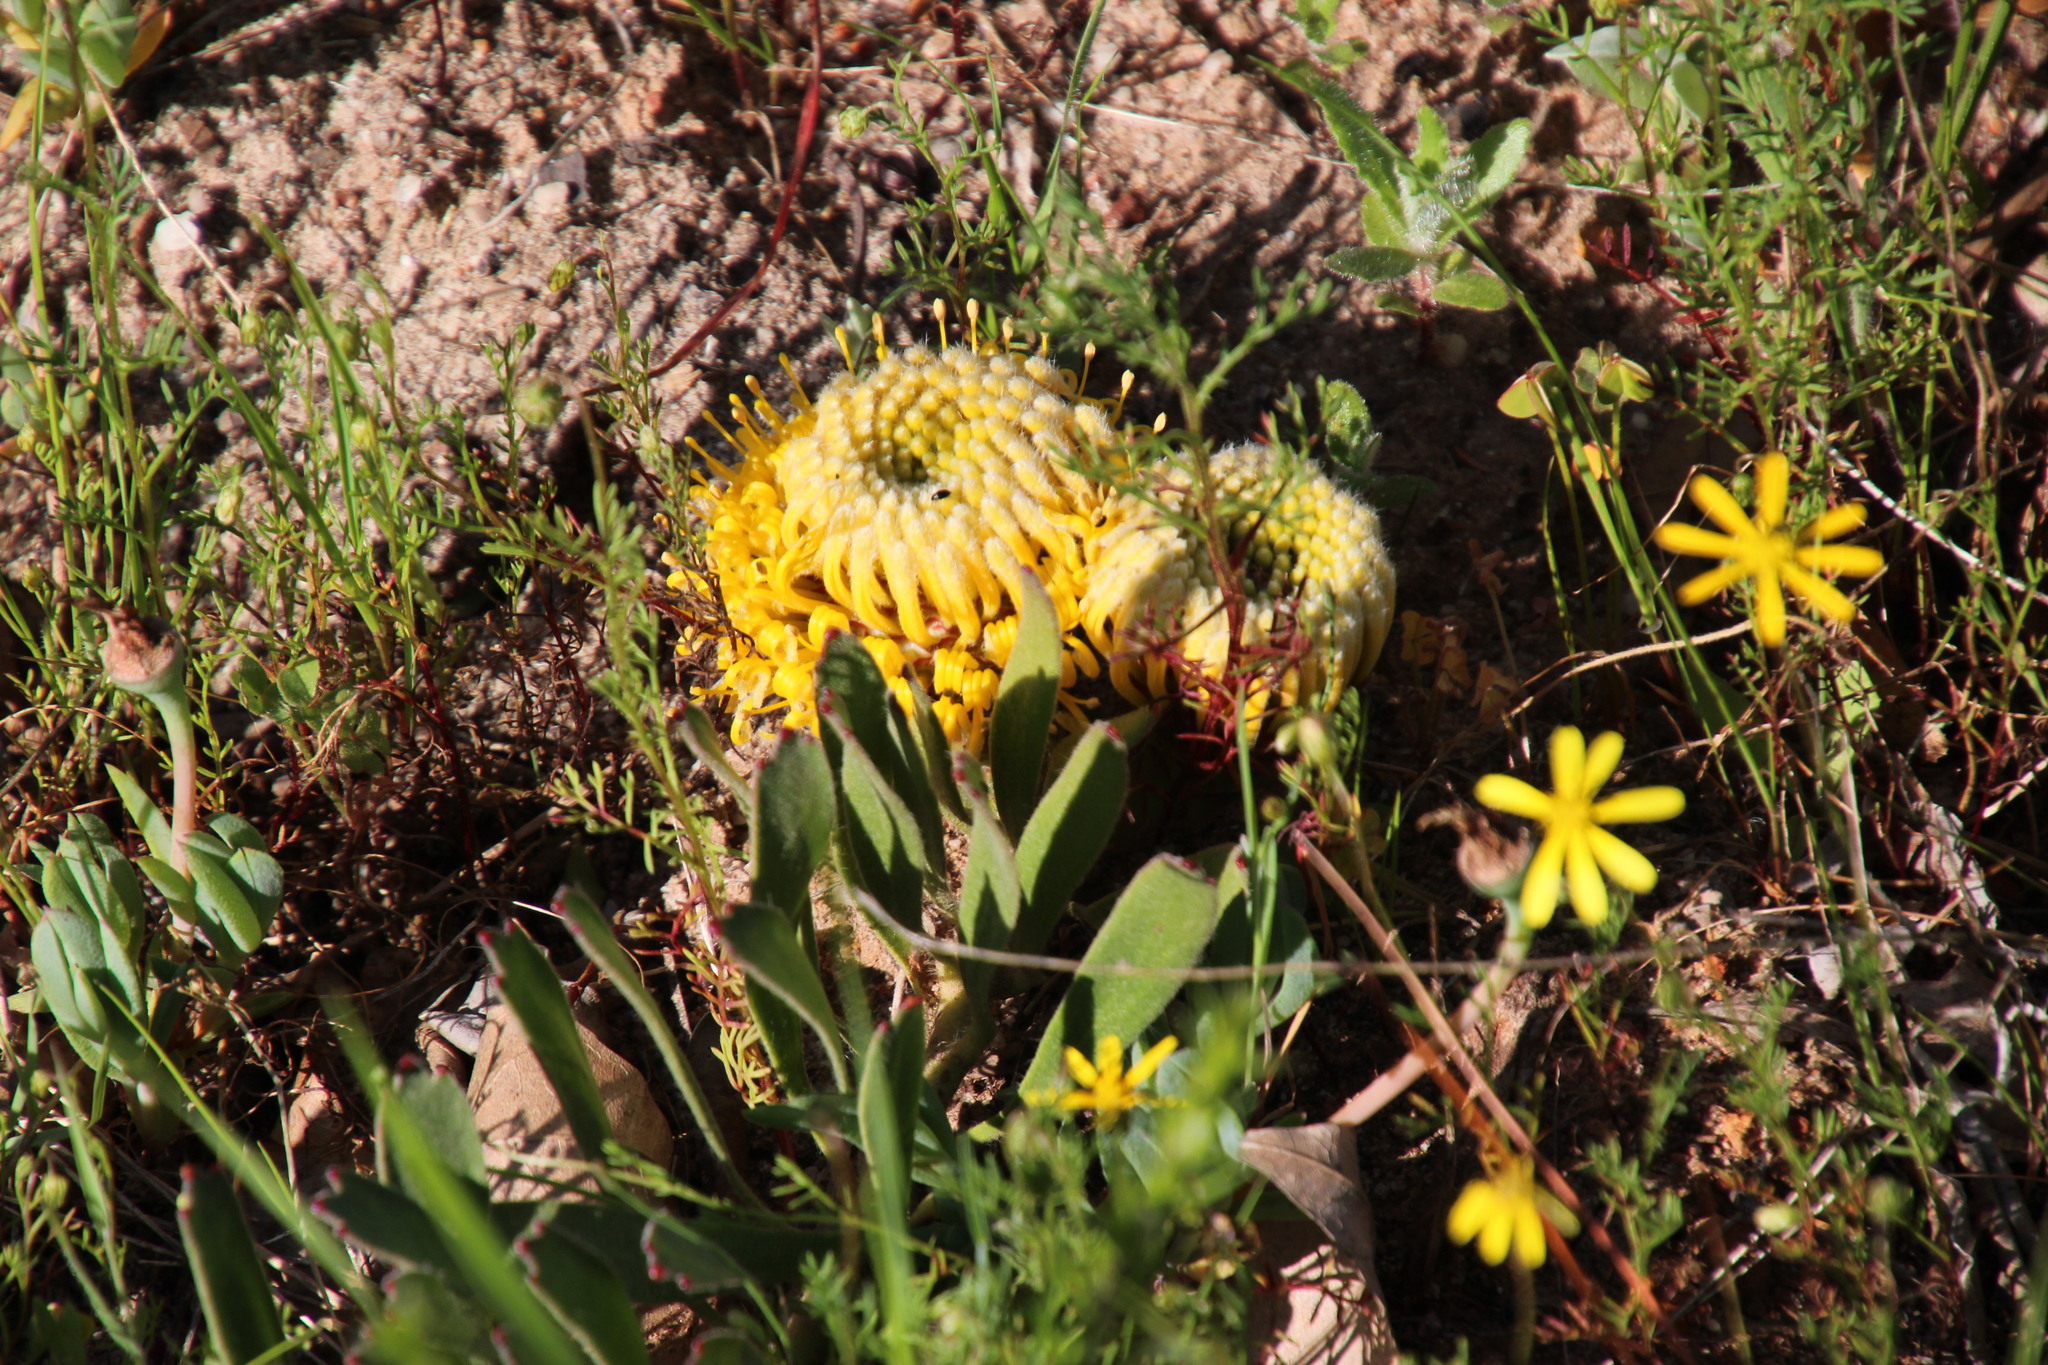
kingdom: Plantae
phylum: Tracheophyta
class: Magnoliopsida
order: Proteales
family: Proteaceae
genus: Leucospermum
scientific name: Leucospermum hypophyllocarpodendron
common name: Snakestem pincushion
